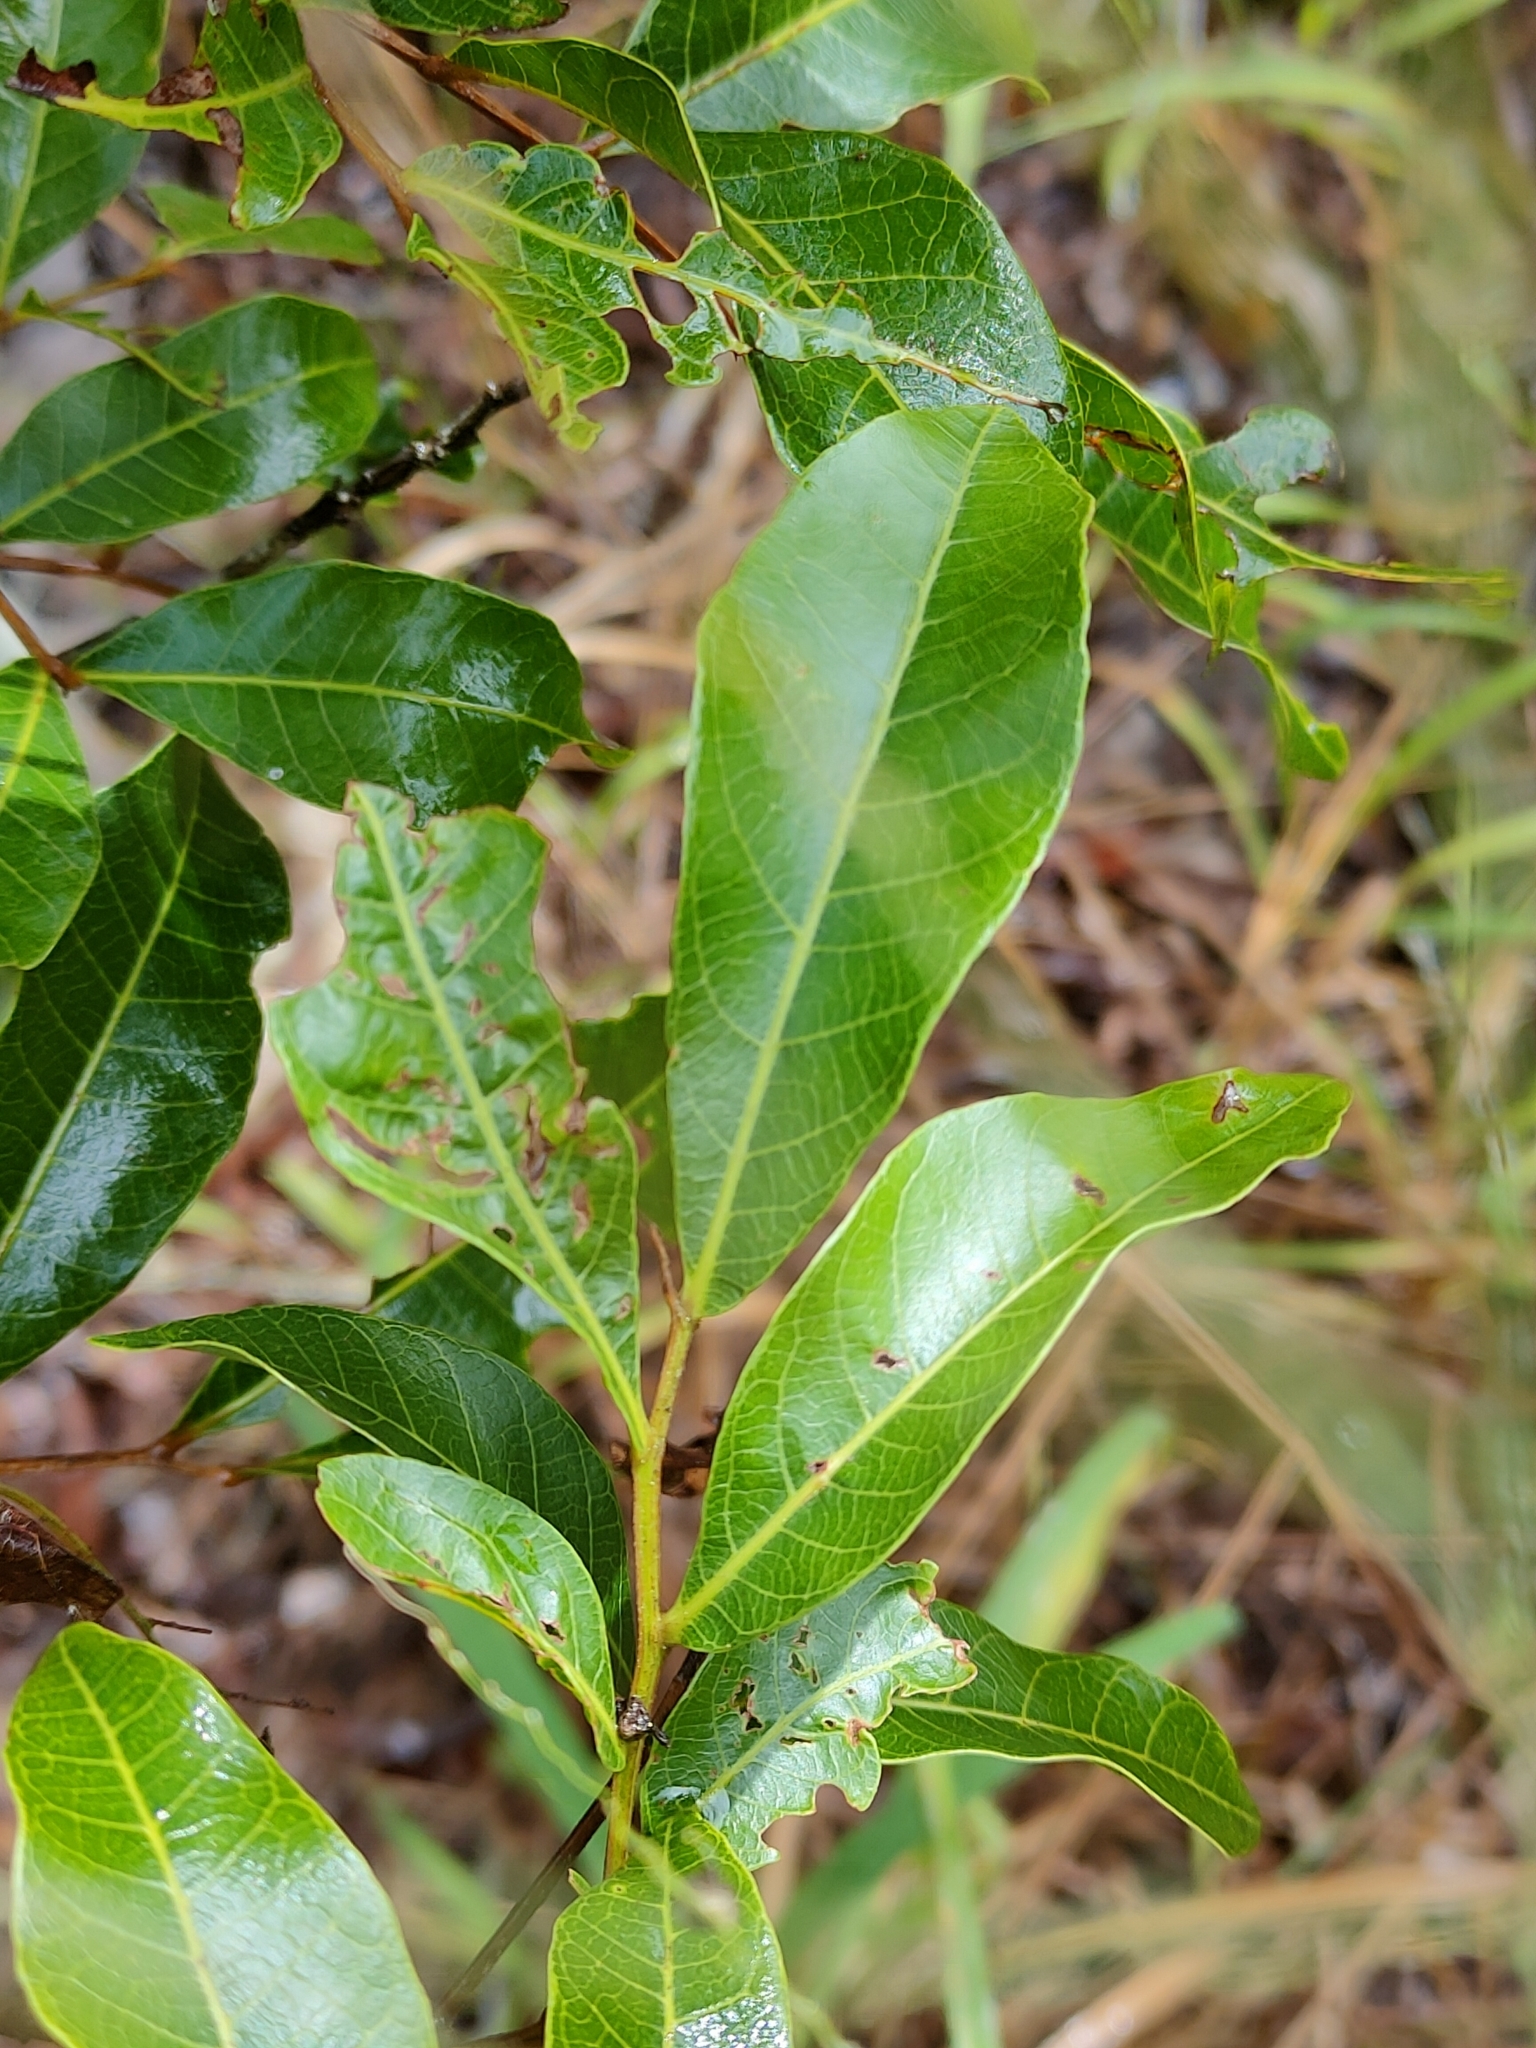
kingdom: Plantae
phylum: Tracheophyta
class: Magnoliopsida
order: Sapindales
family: Sapindaceae
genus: Alectryon
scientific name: Alectryon connatus
